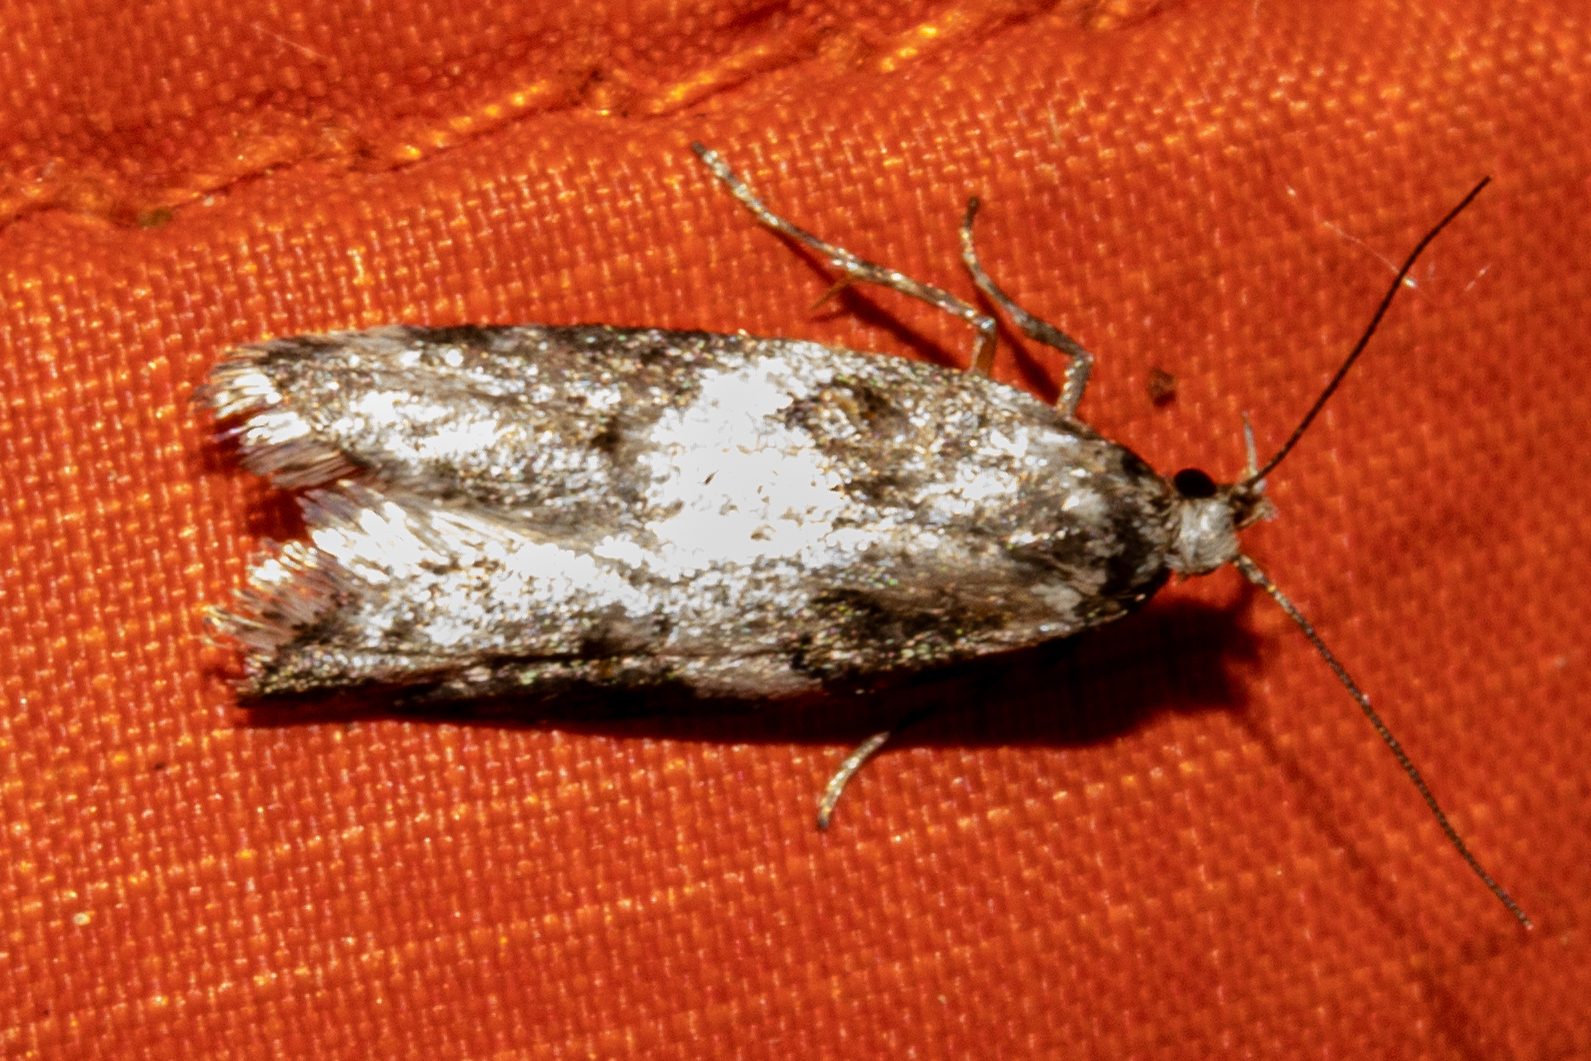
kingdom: Animalia
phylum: Arthropoda
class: Insecta
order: Lepidoptera
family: Oecophoridae
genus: Trachypepla
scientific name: Trachypepla galaxias
